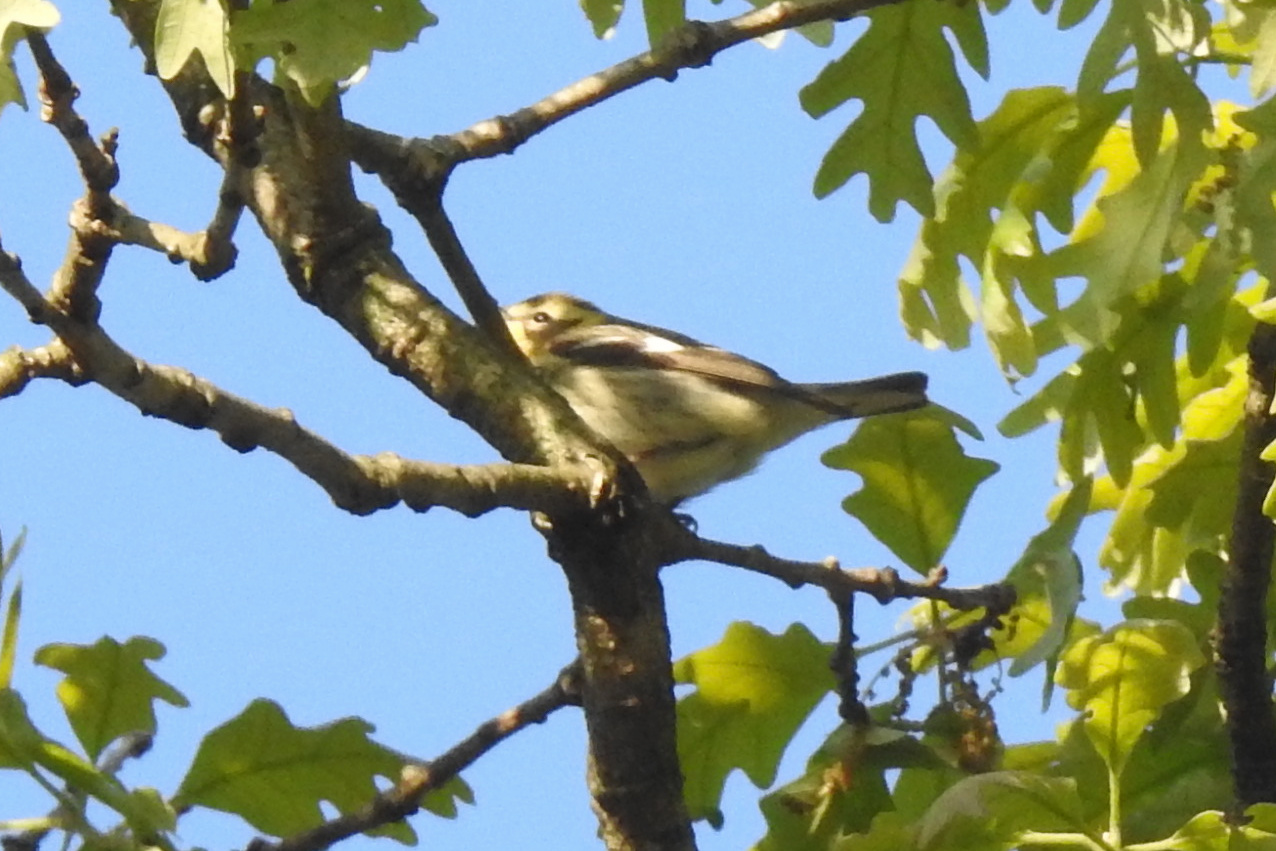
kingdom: Animalia
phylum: Chordata
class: Aves
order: Passeriformes
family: Parulidae
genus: Setophaga
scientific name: Setophaga fusca
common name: Blackburnian warbler
